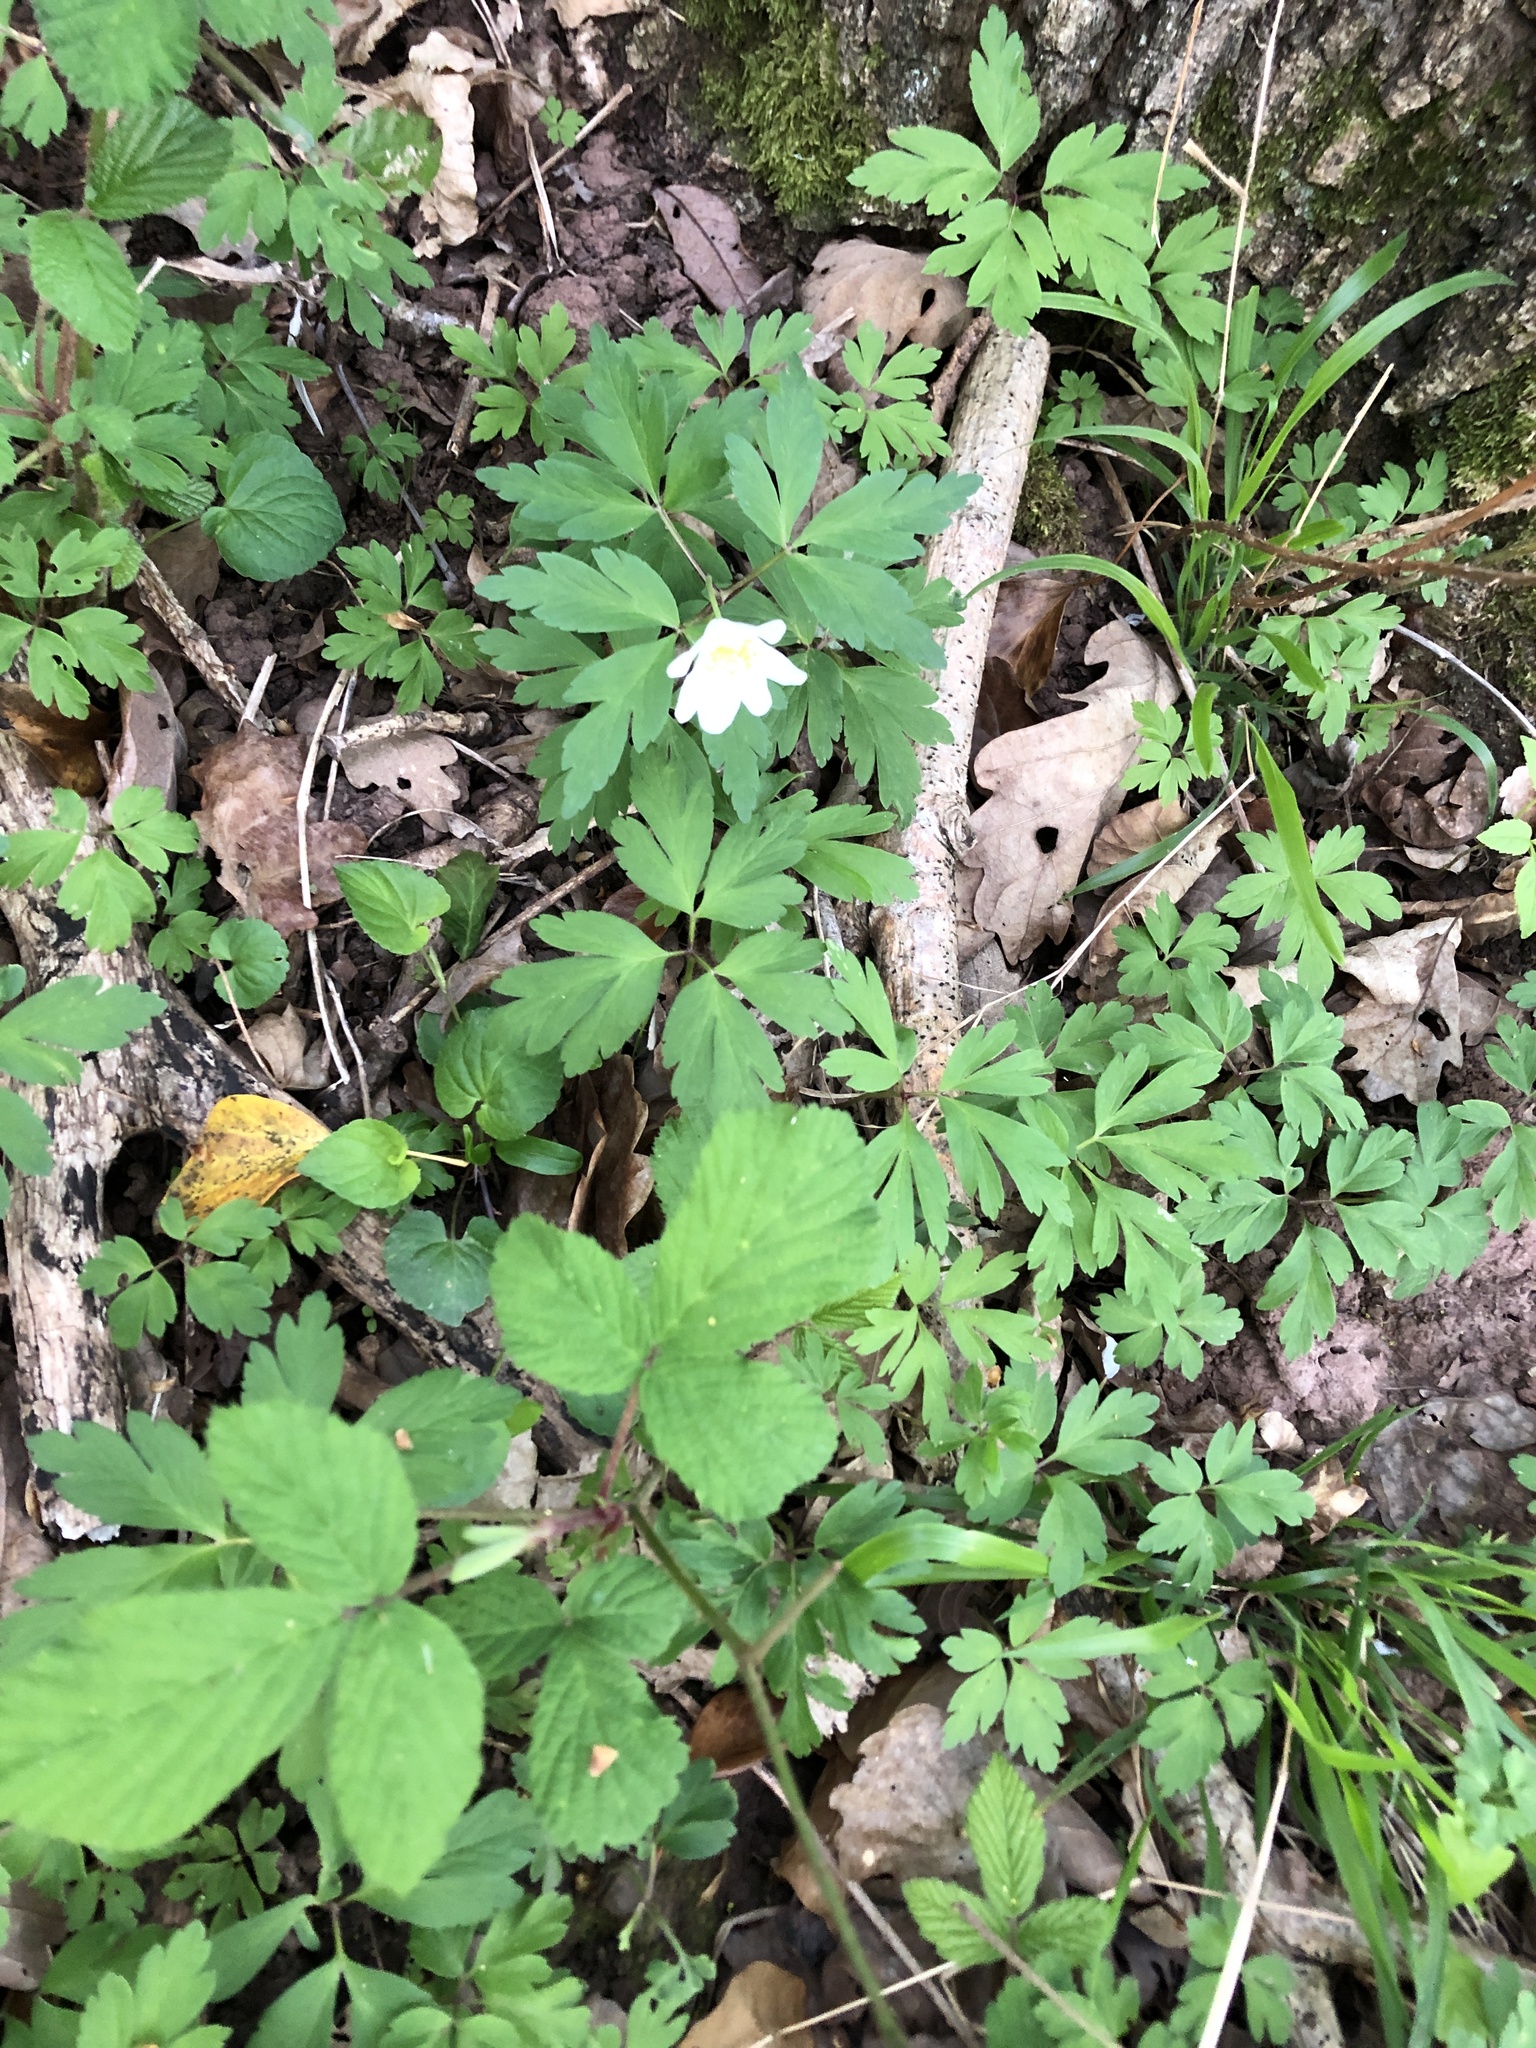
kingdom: Plantae
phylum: Tracheophyta
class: Magnoliopsida
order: Ranunculales
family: Ranunculaceae
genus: Anemone
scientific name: Anemone nemorosa
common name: Wood anemone
